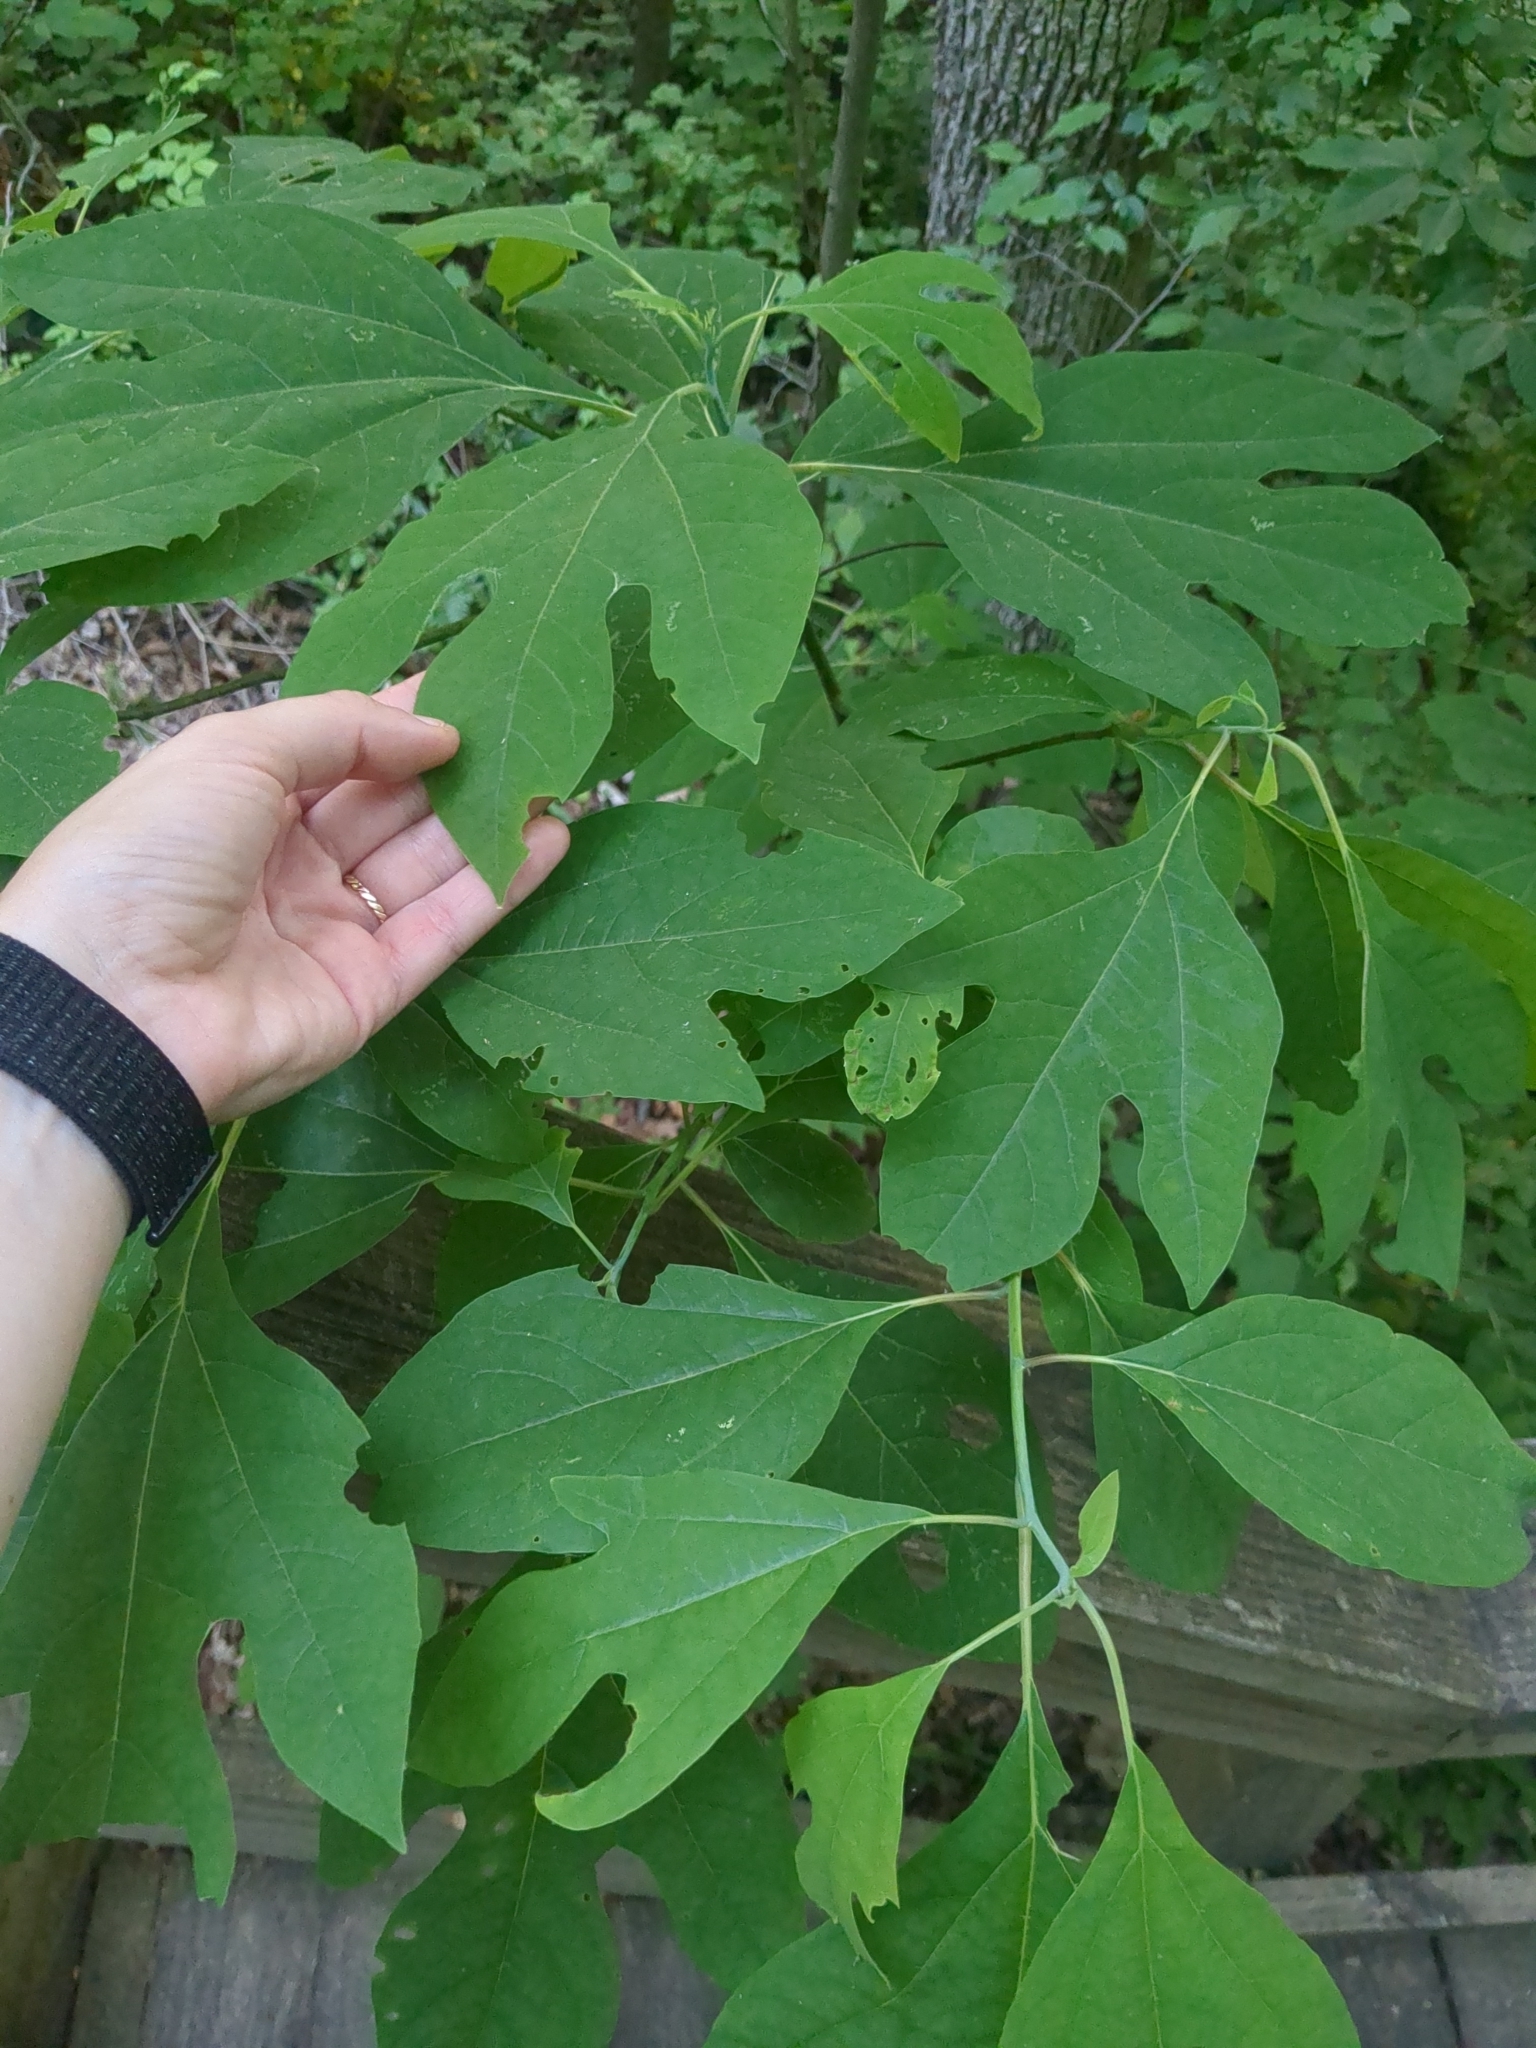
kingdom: Plantae
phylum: Tracheophyta
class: Magnoliopsida
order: Laurales
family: Lauraceae
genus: Sassafras
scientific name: Sassafras albidum
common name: Sassafras
